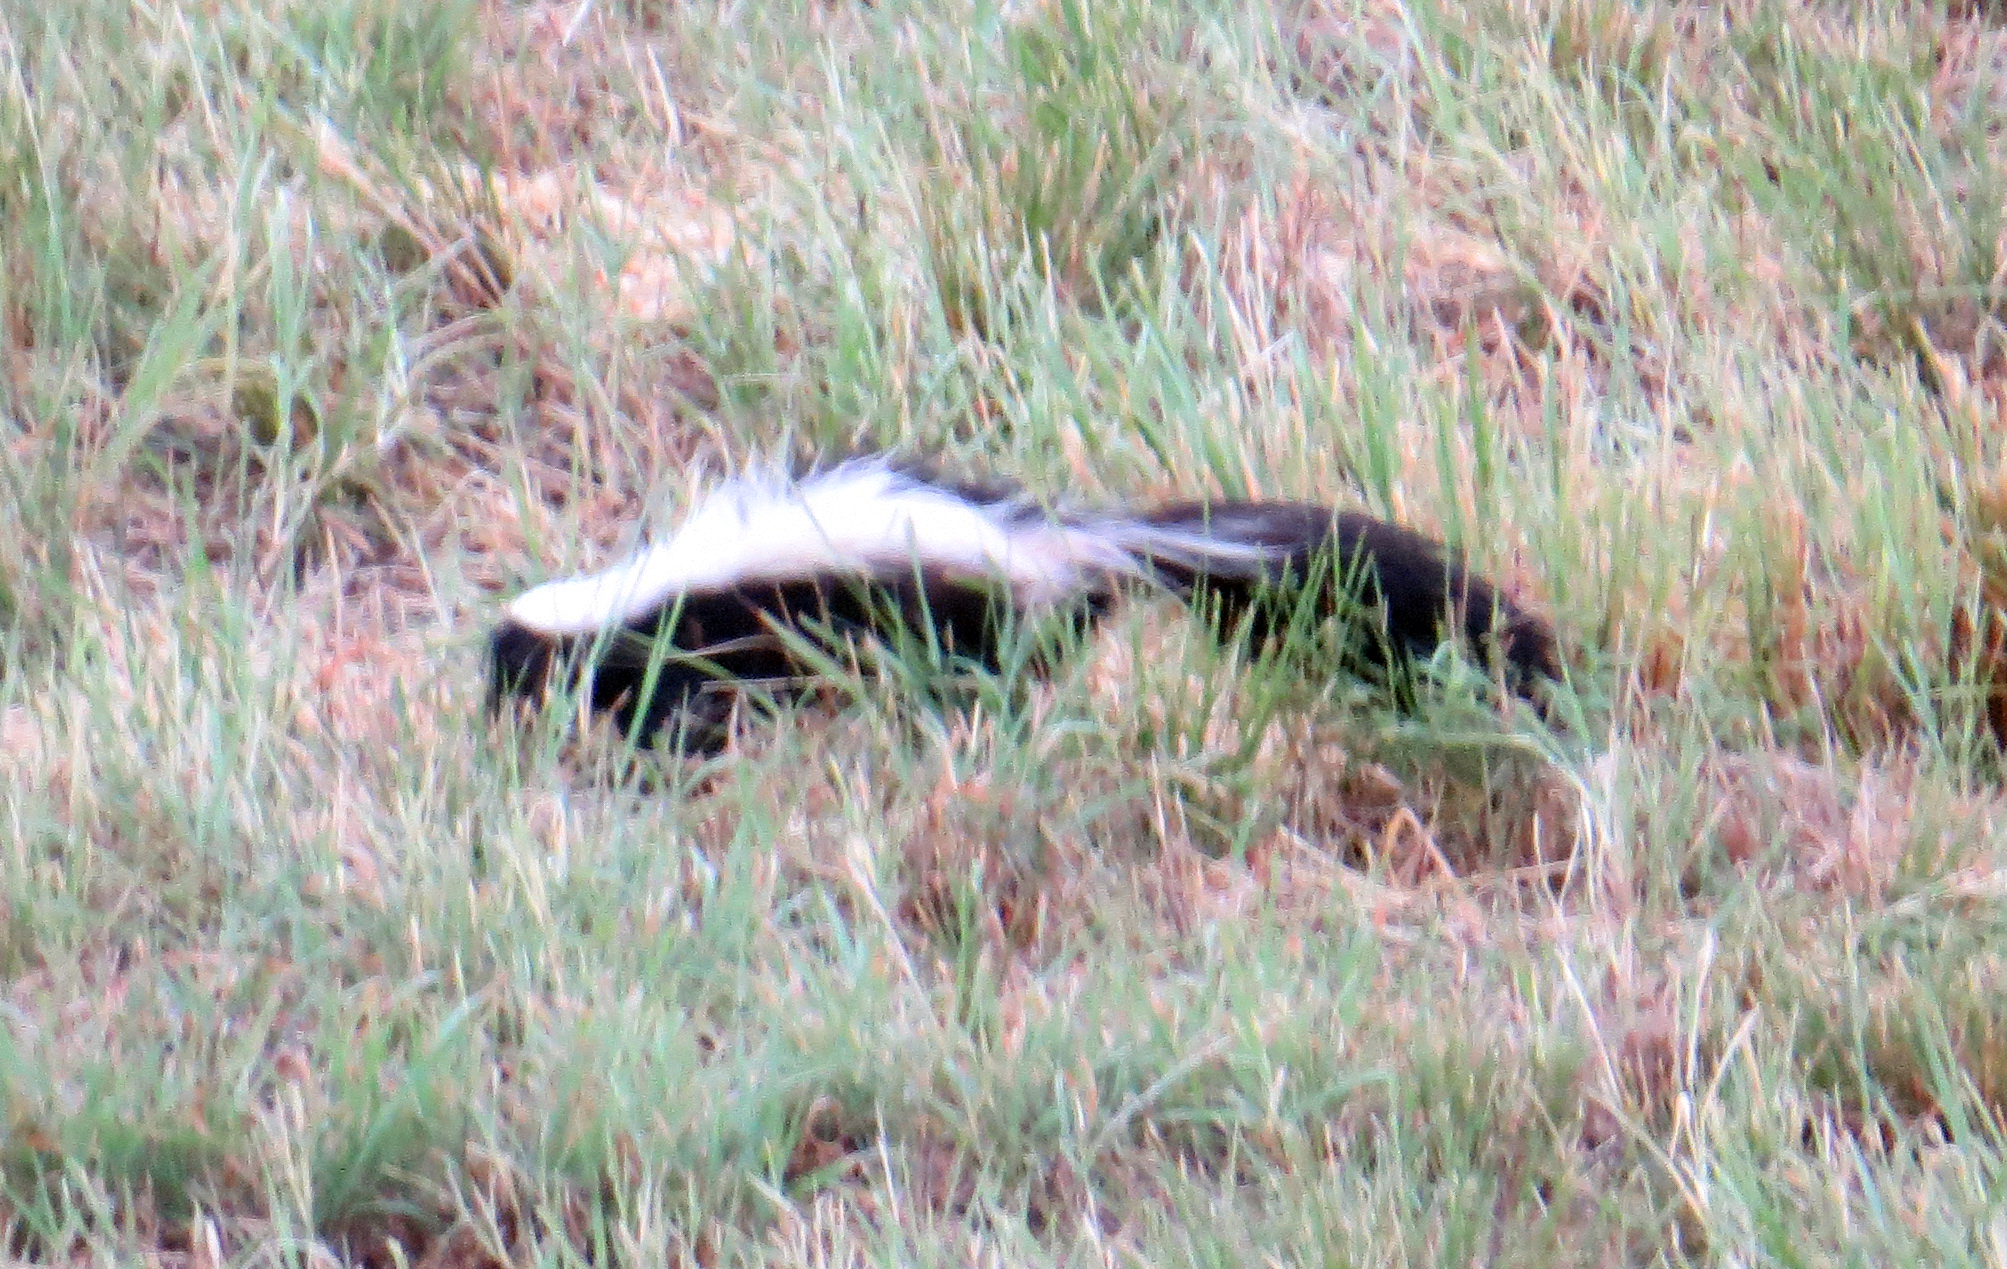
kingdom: Animalia
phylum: Chordata
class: Mammalia
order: Carnivora
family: Mephitidae
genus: Mephitis
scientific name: Mephitis mephitis
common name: Striped skunk
